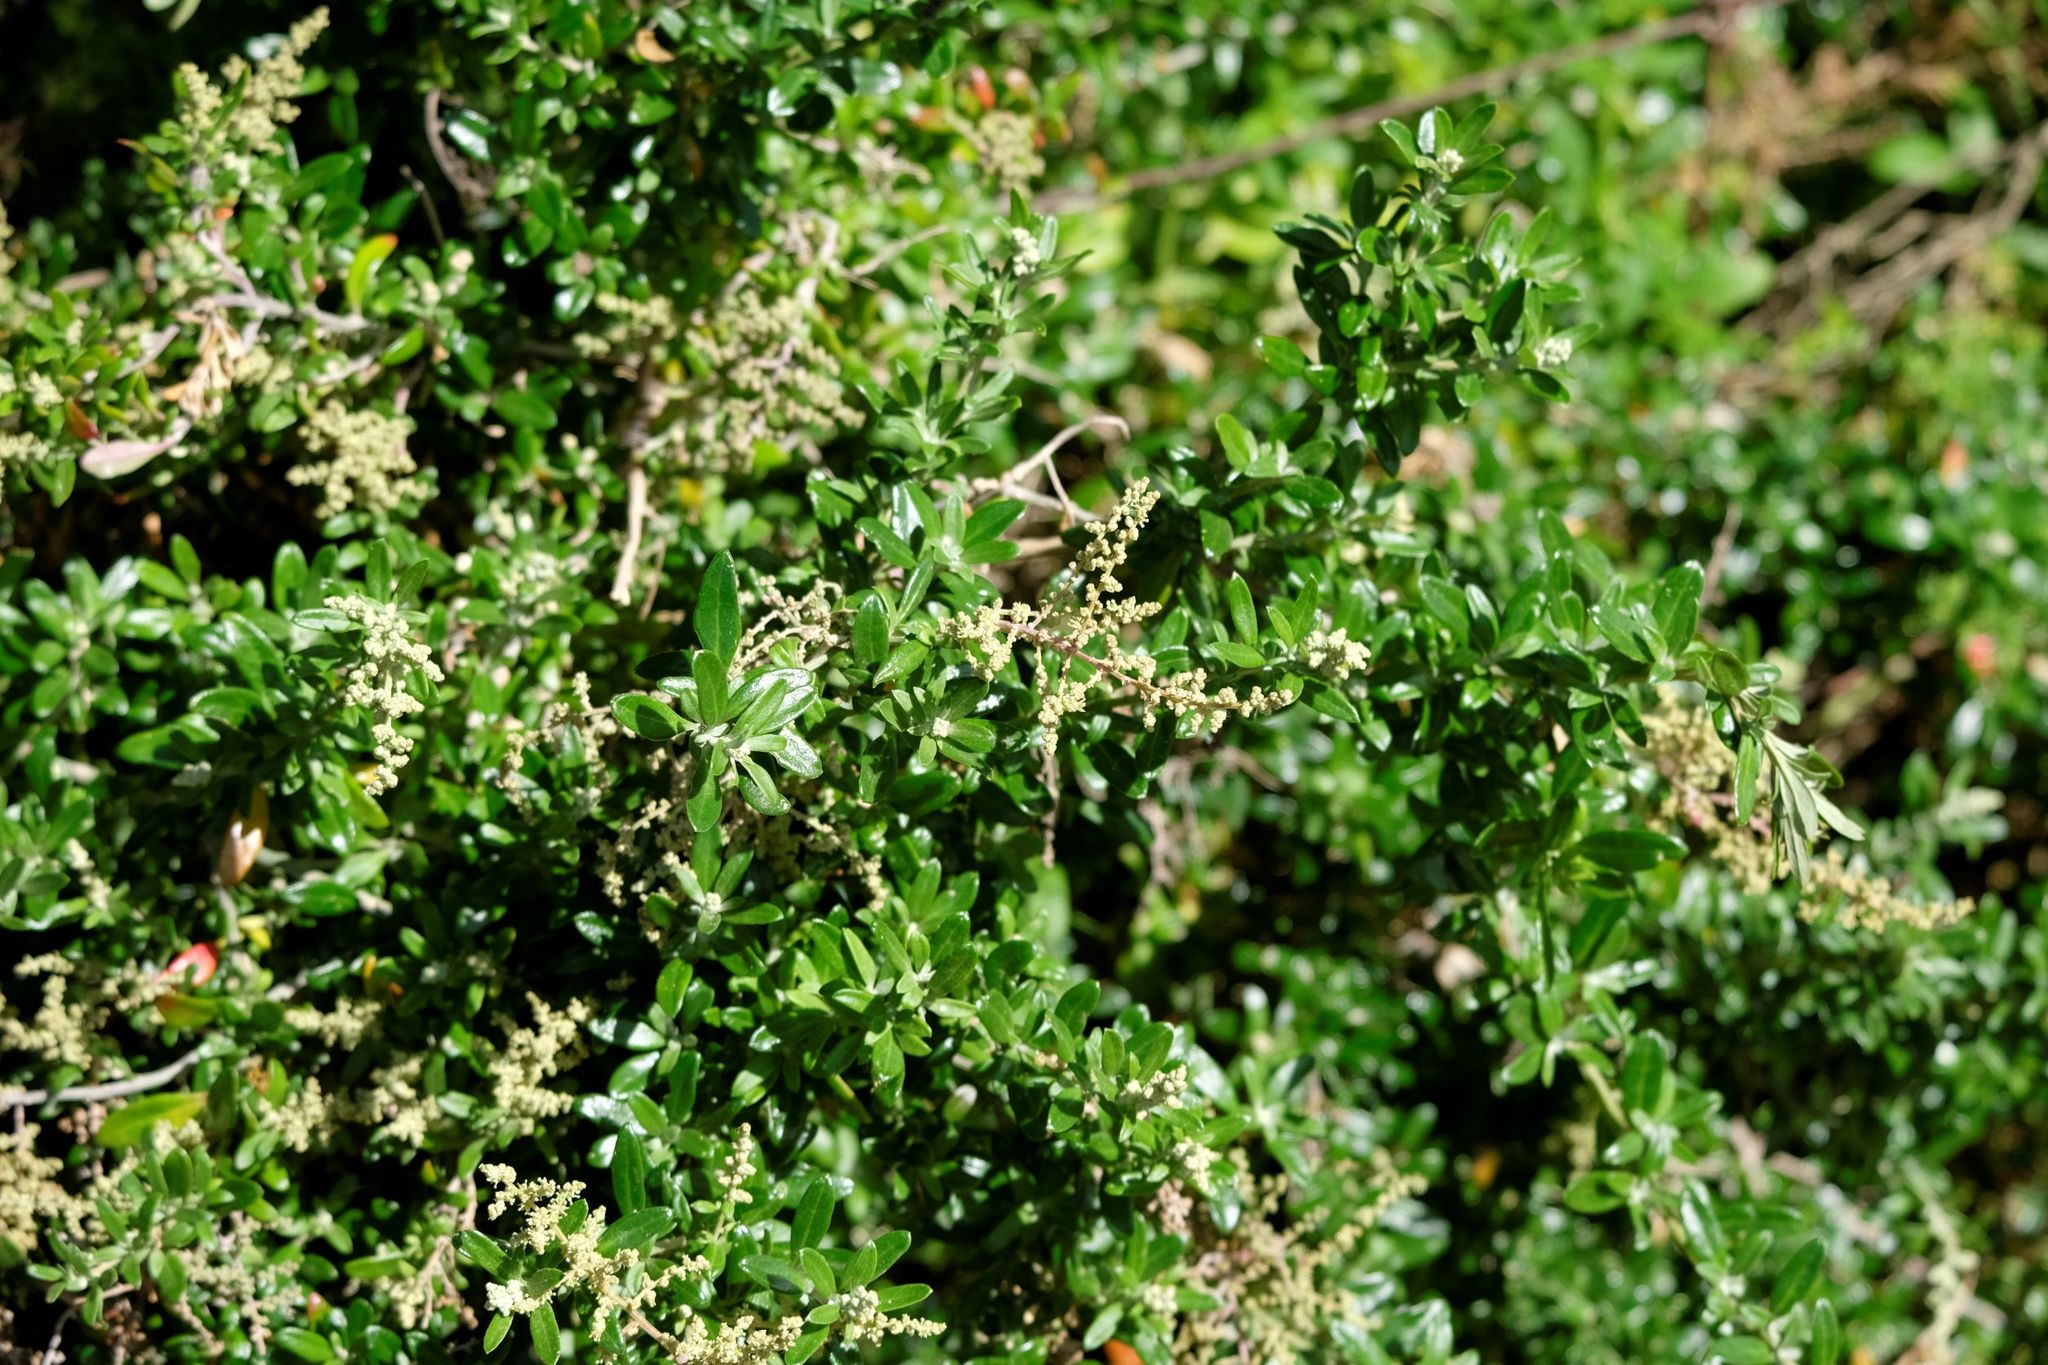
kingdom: Plantae
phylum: Tracheophyta
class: Magnoliopsida
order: Caryophyllales
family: Amaranthaceae
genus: Chenopodium
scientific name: Chenopodium candolleanum
